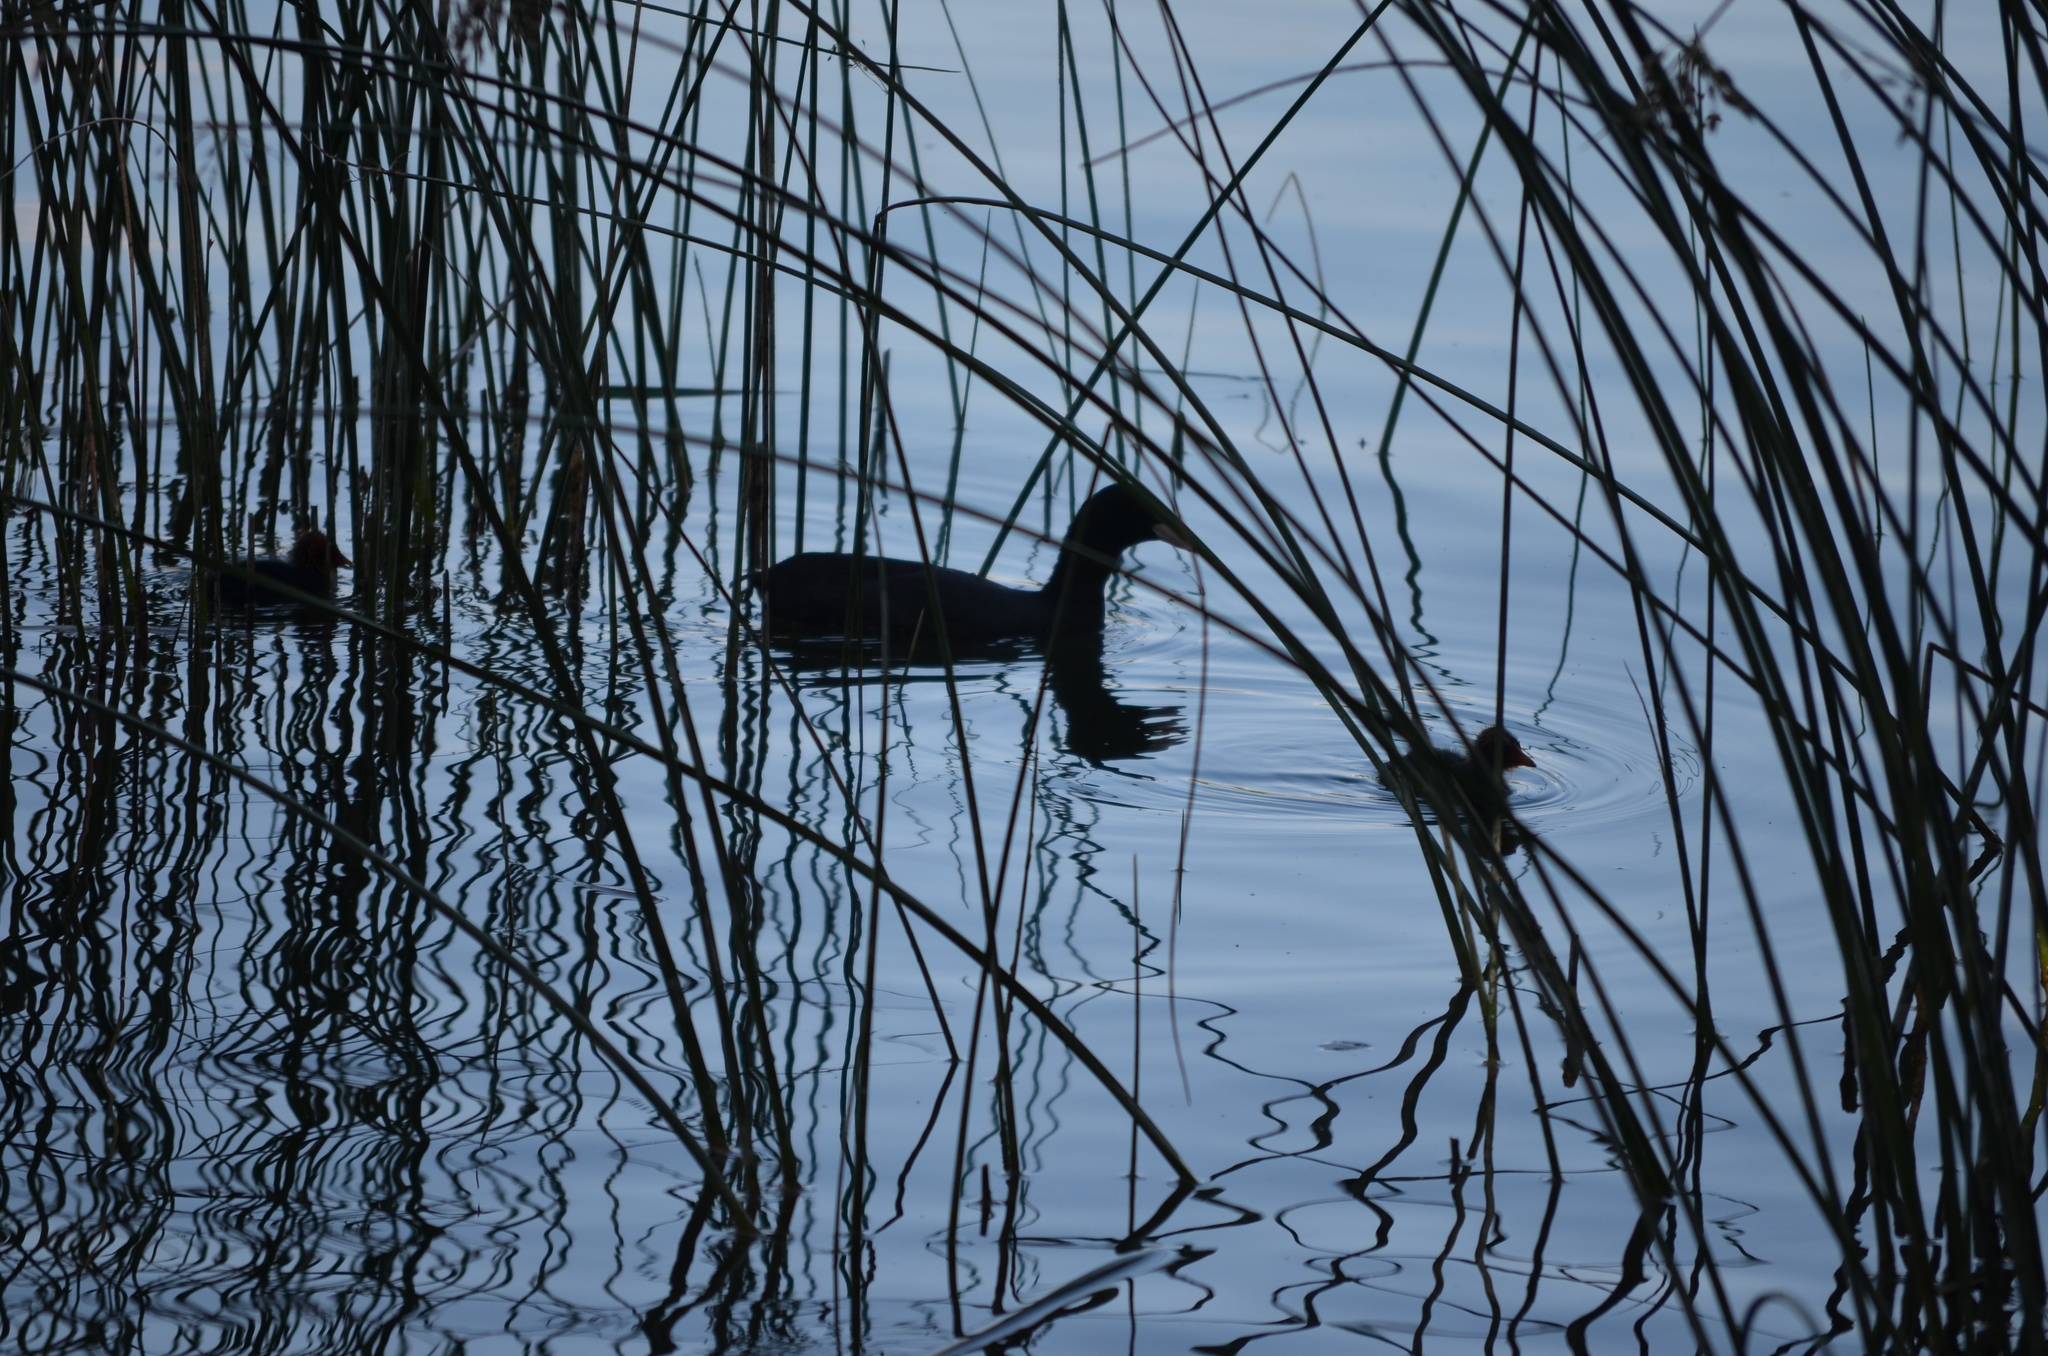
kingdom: Animalia
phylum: Chordata
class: Aves
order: Gruiformes
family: Rallidae
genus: Fulica
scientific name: Fulica atra
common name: Eurasian coot
